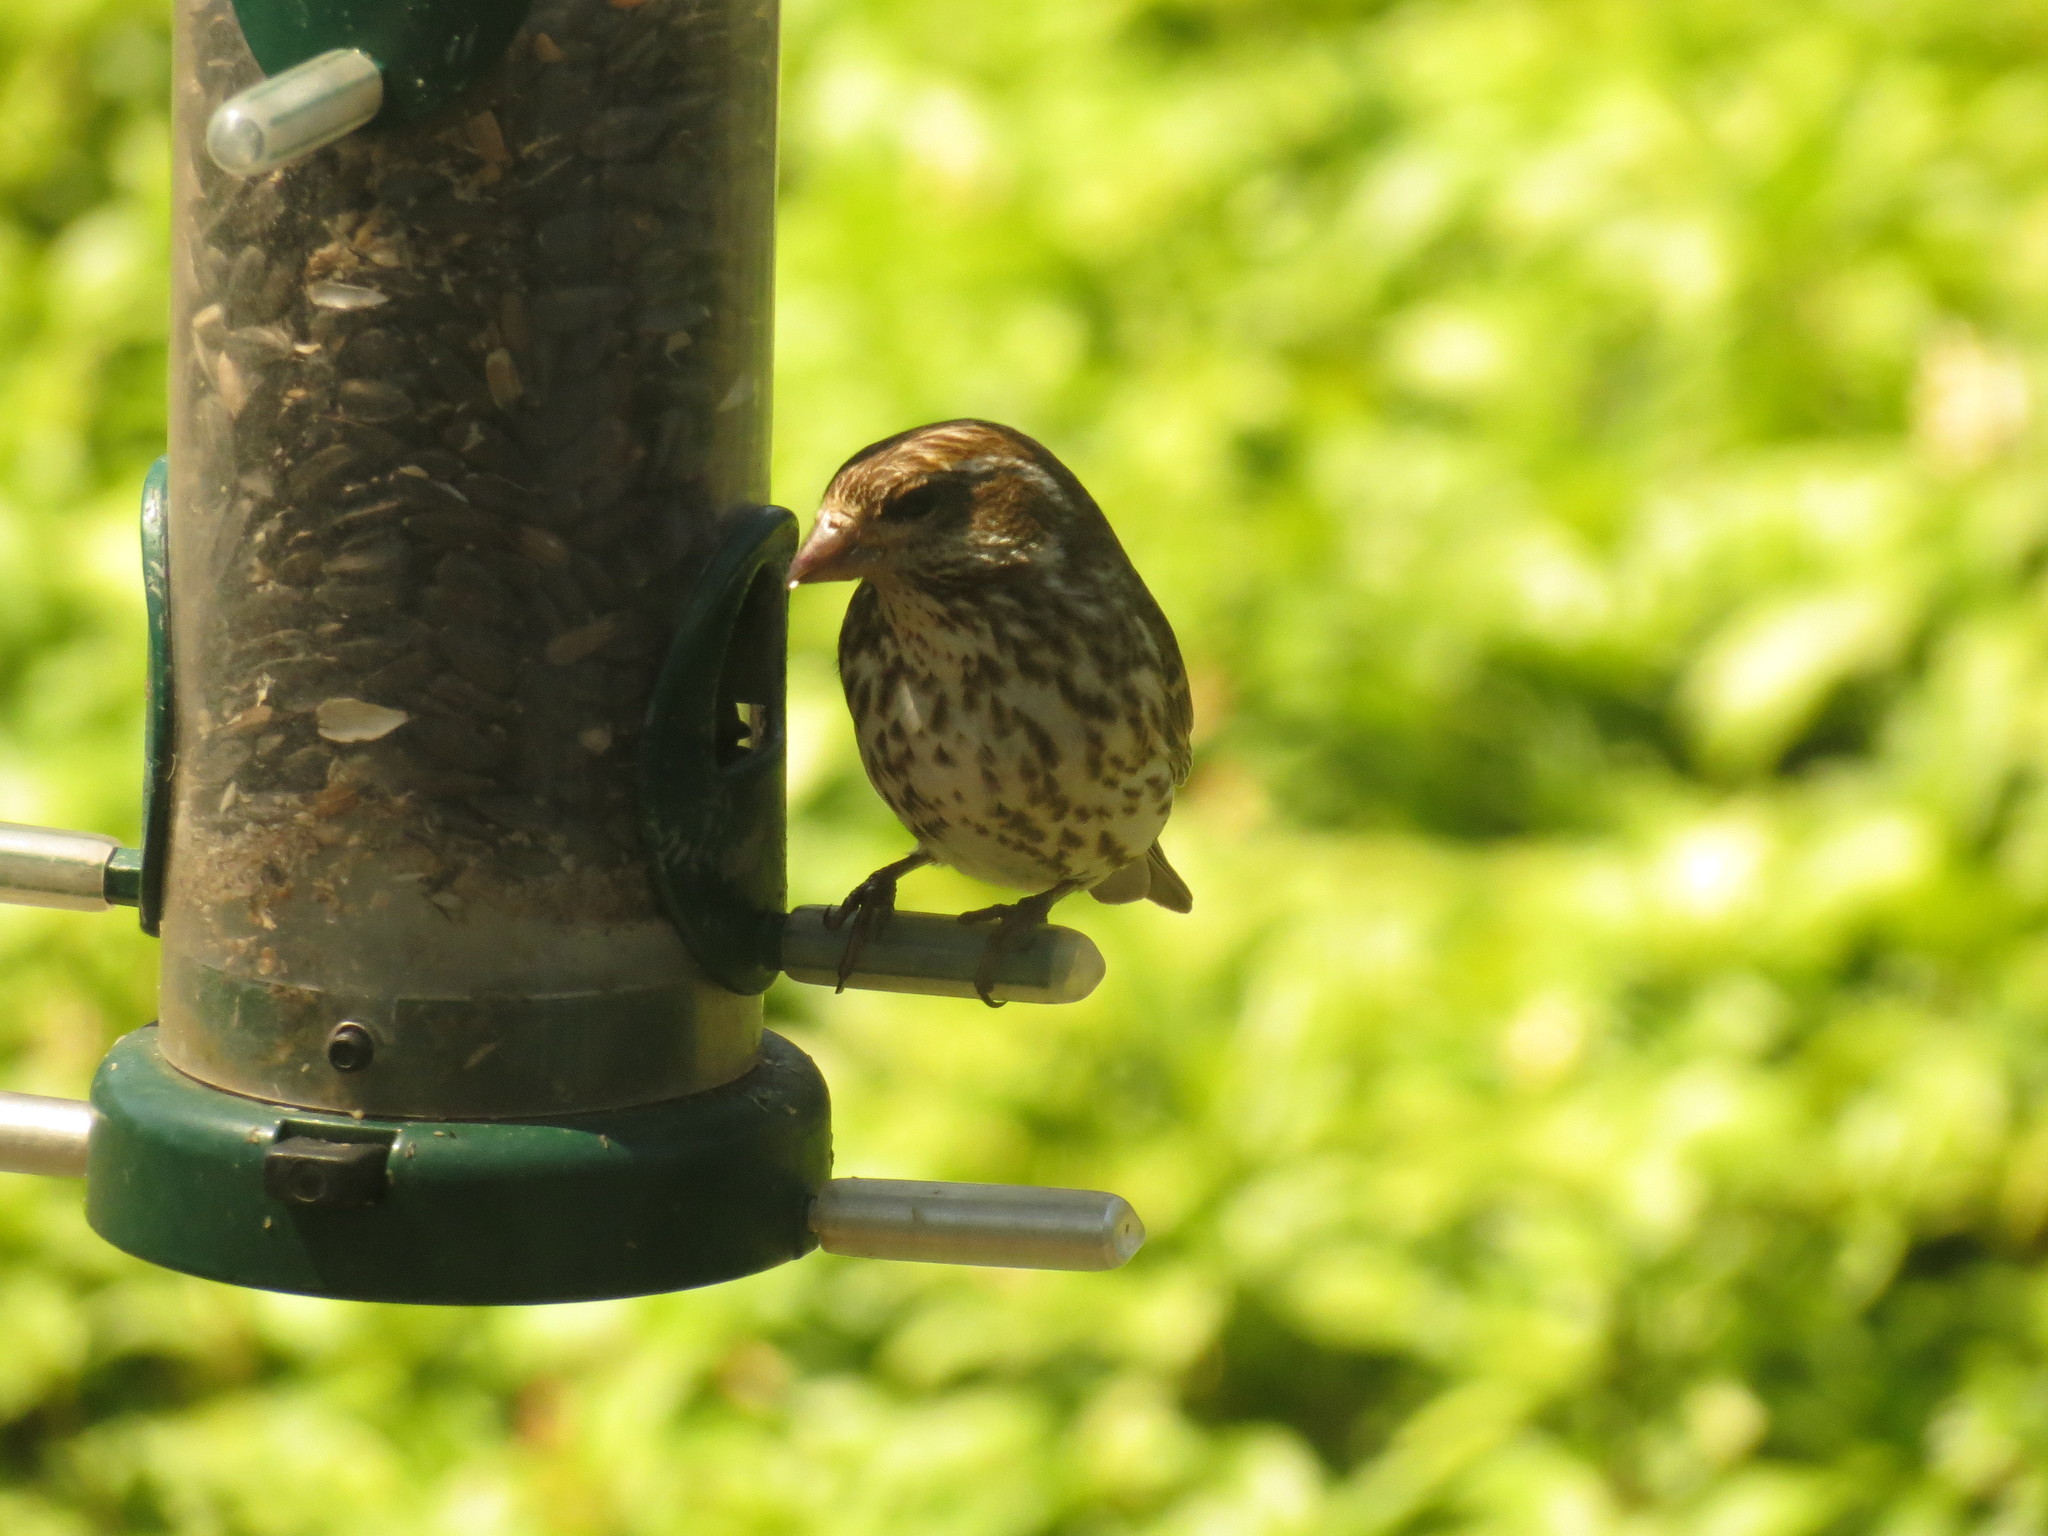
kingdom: Animalia
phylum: Chordata
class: Aves
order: Passeriformes
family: Fringillidae
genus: Haemorhous
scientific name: Haemorhous purpureus
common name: Purple finch
